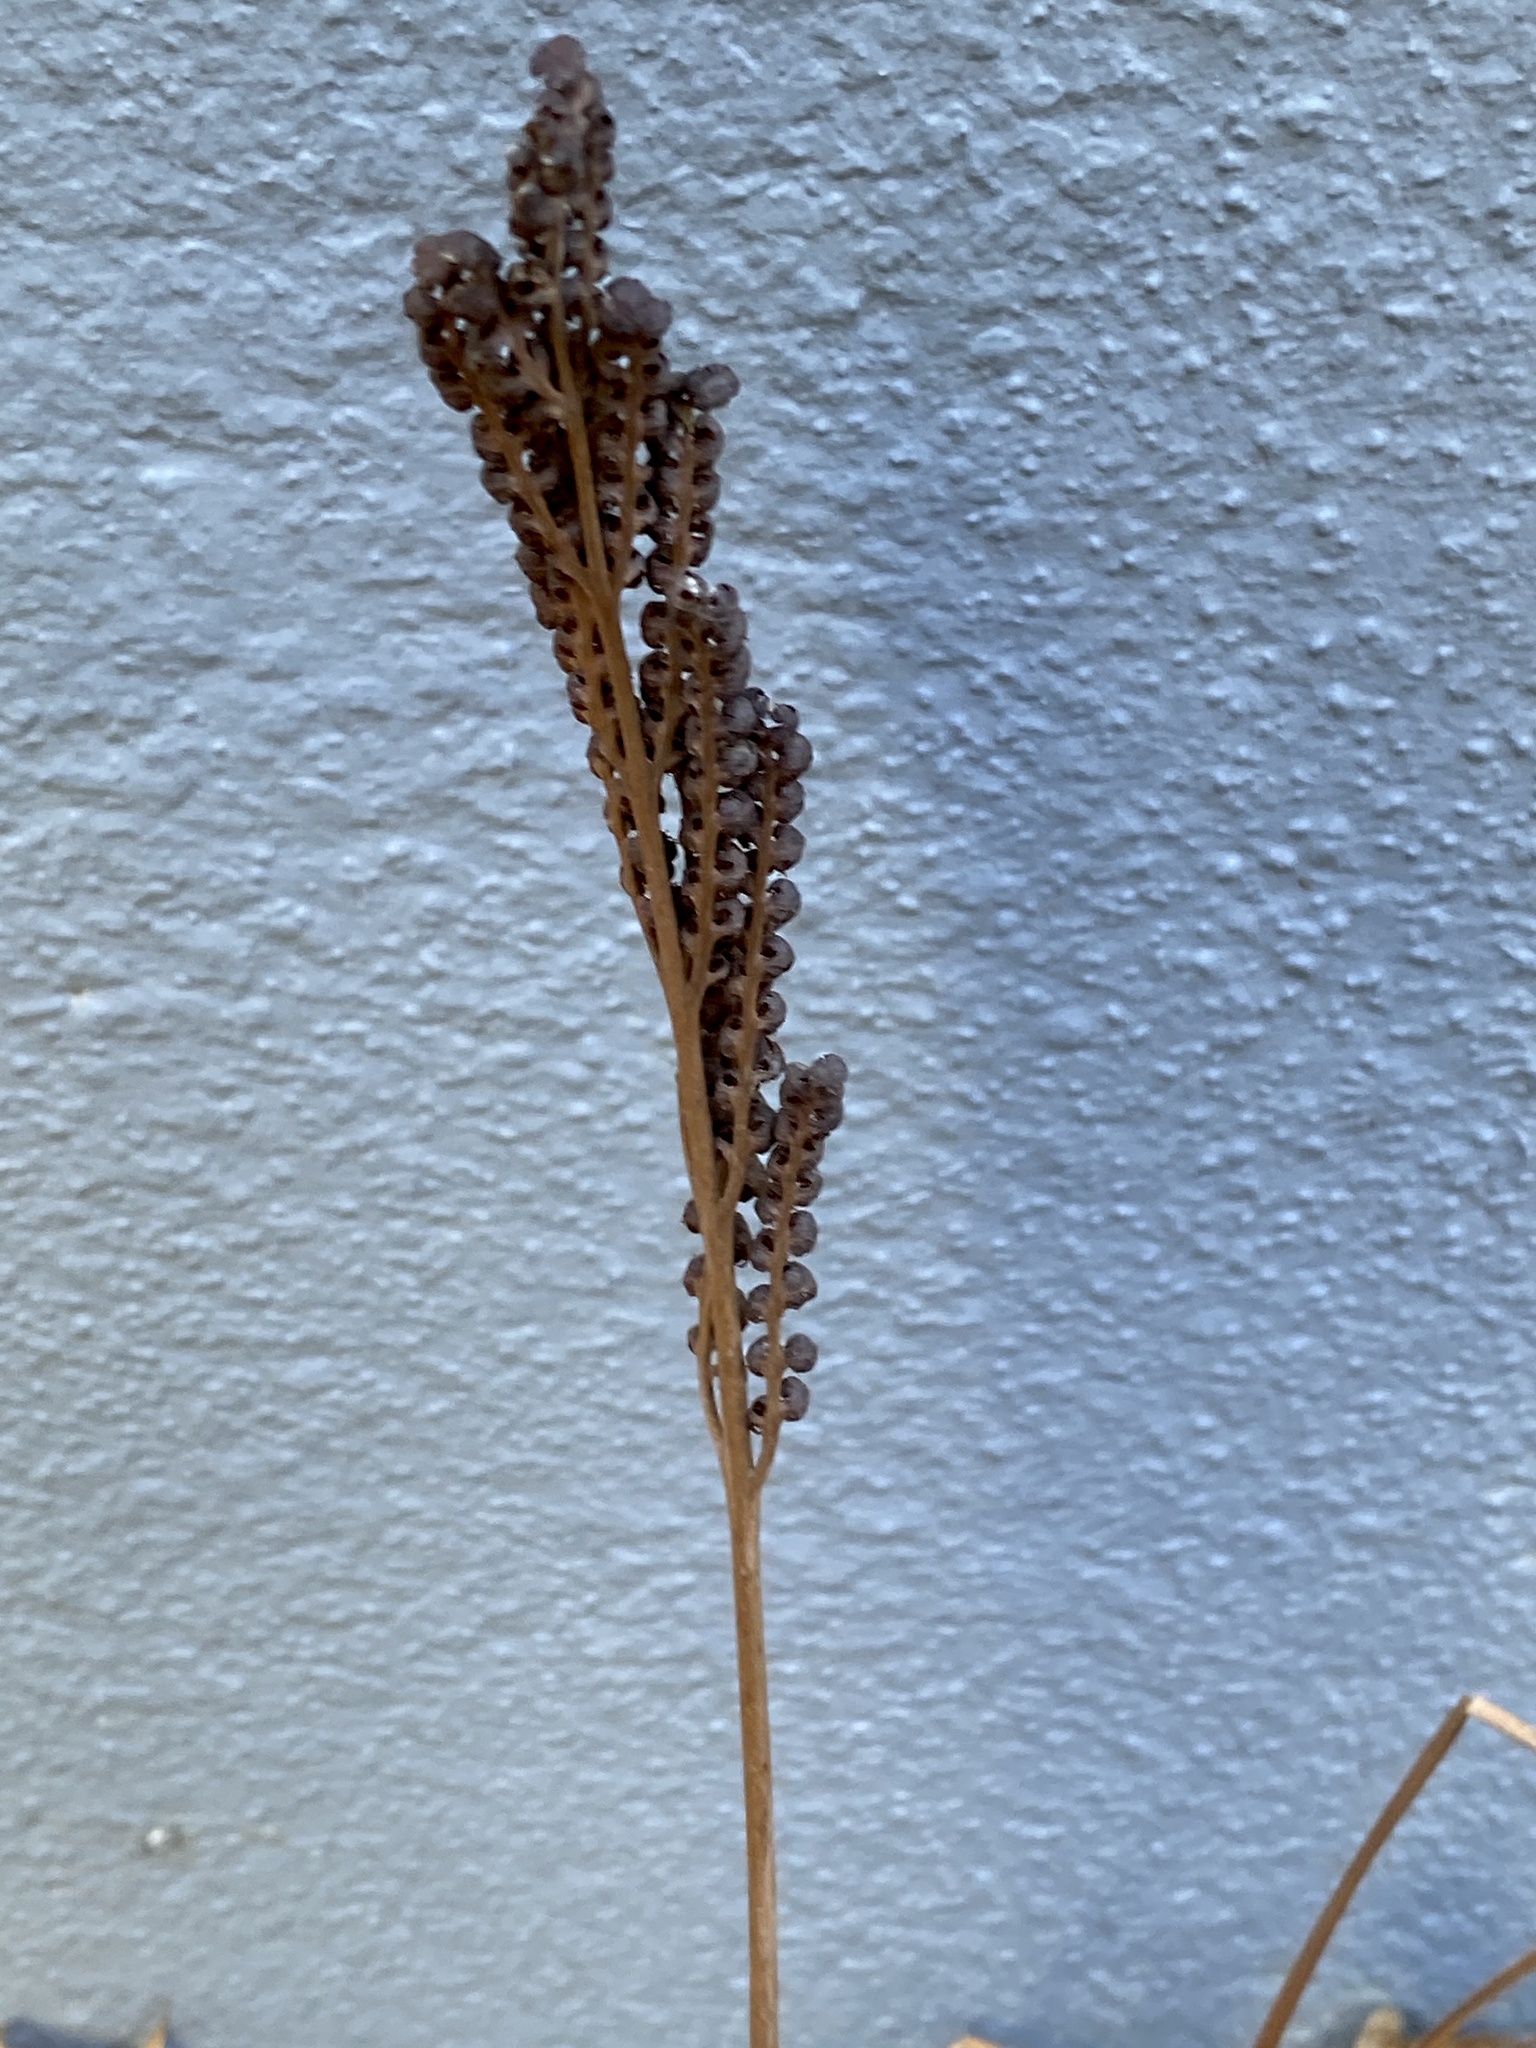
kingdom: Plantae
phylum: Tracheophyta
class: Polypodiopsida
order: Polypodiales
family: Onocleaceae
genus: Onoclea
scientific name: Onoclea sensibilis
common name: Sensitive fern
